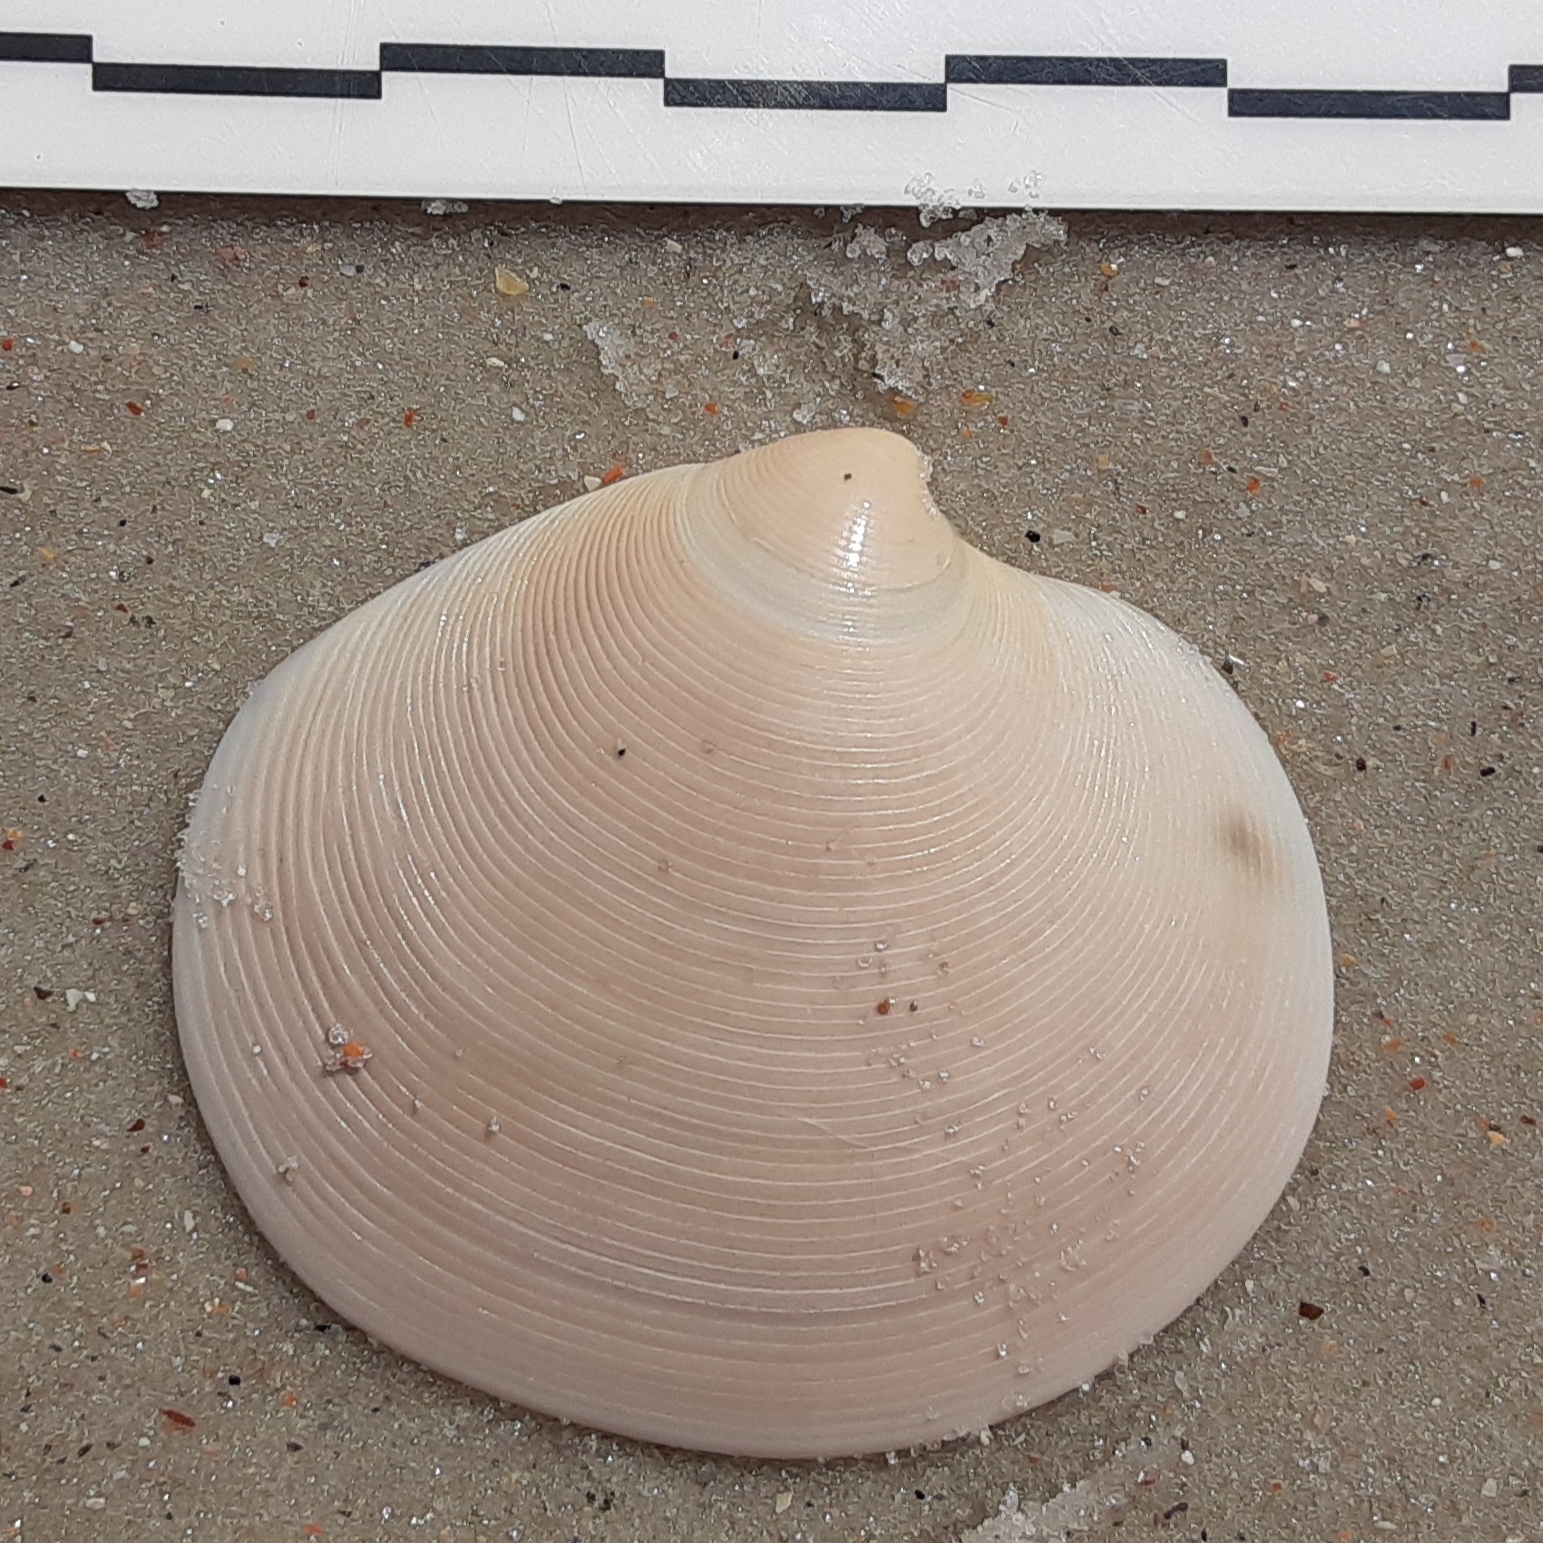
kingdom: Animalia
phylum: Mollusca
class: Bivalvia
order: Venerida
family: Veneridae
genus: Dosinia
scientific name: Dosinia discus
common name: Disk dosinia
